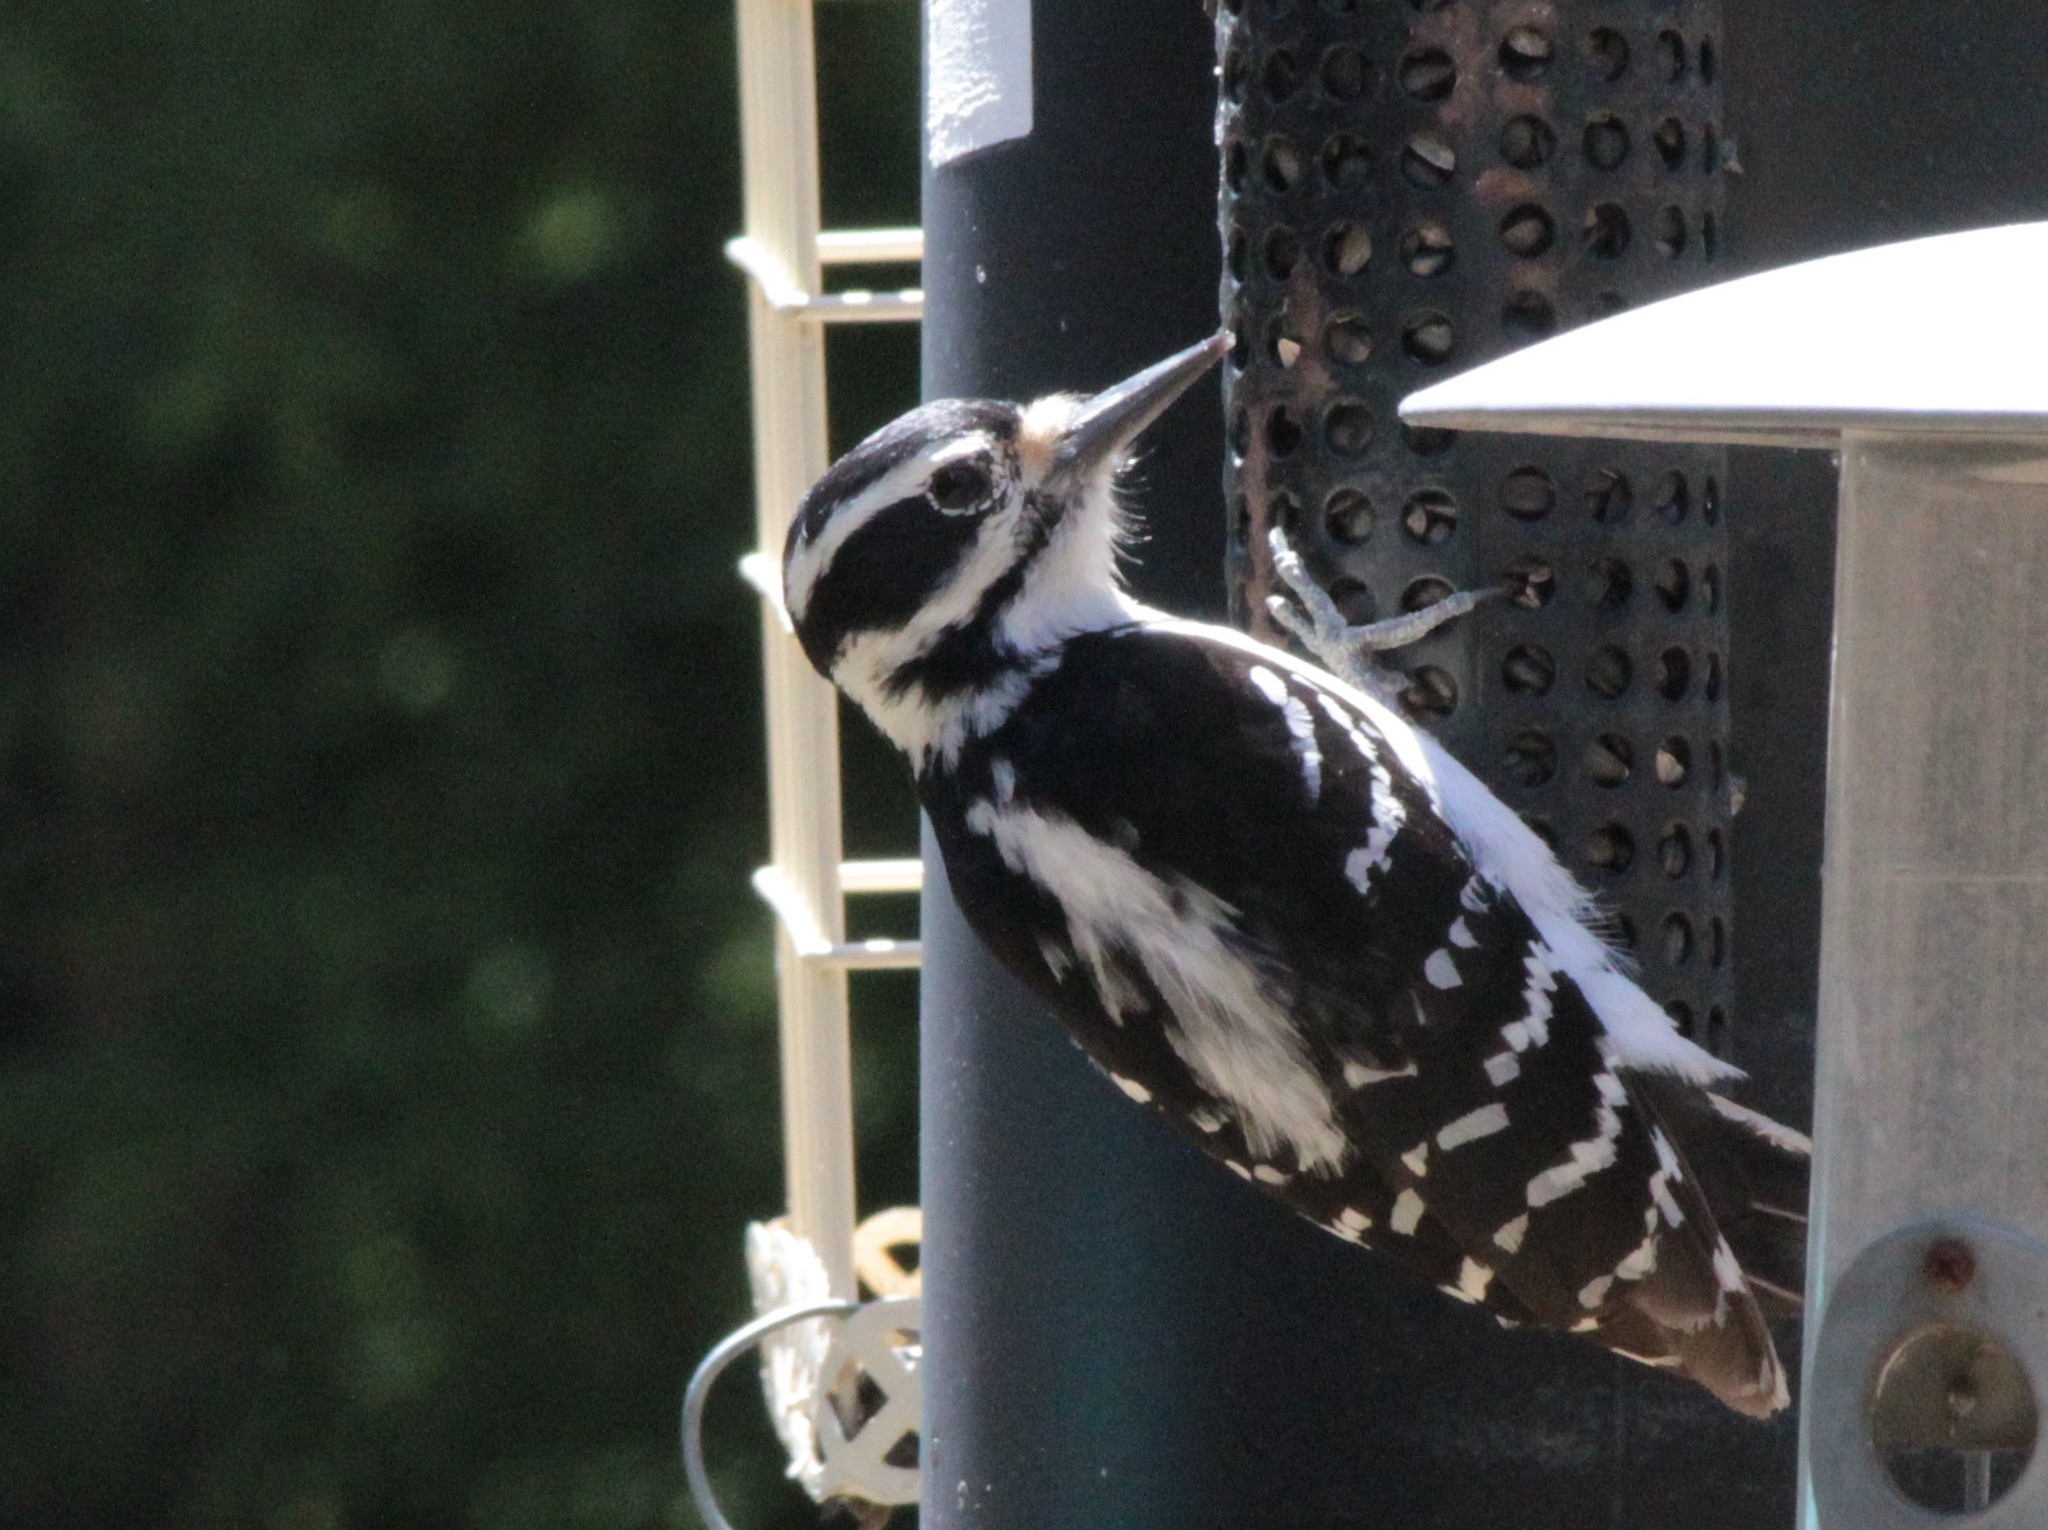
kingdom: Animalia
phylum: Chordata
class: Aves
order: Piciformes
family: Picidae
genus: Leuconotopicus
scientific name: Leuconotopicus villosus
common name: Hairy woodpecker
